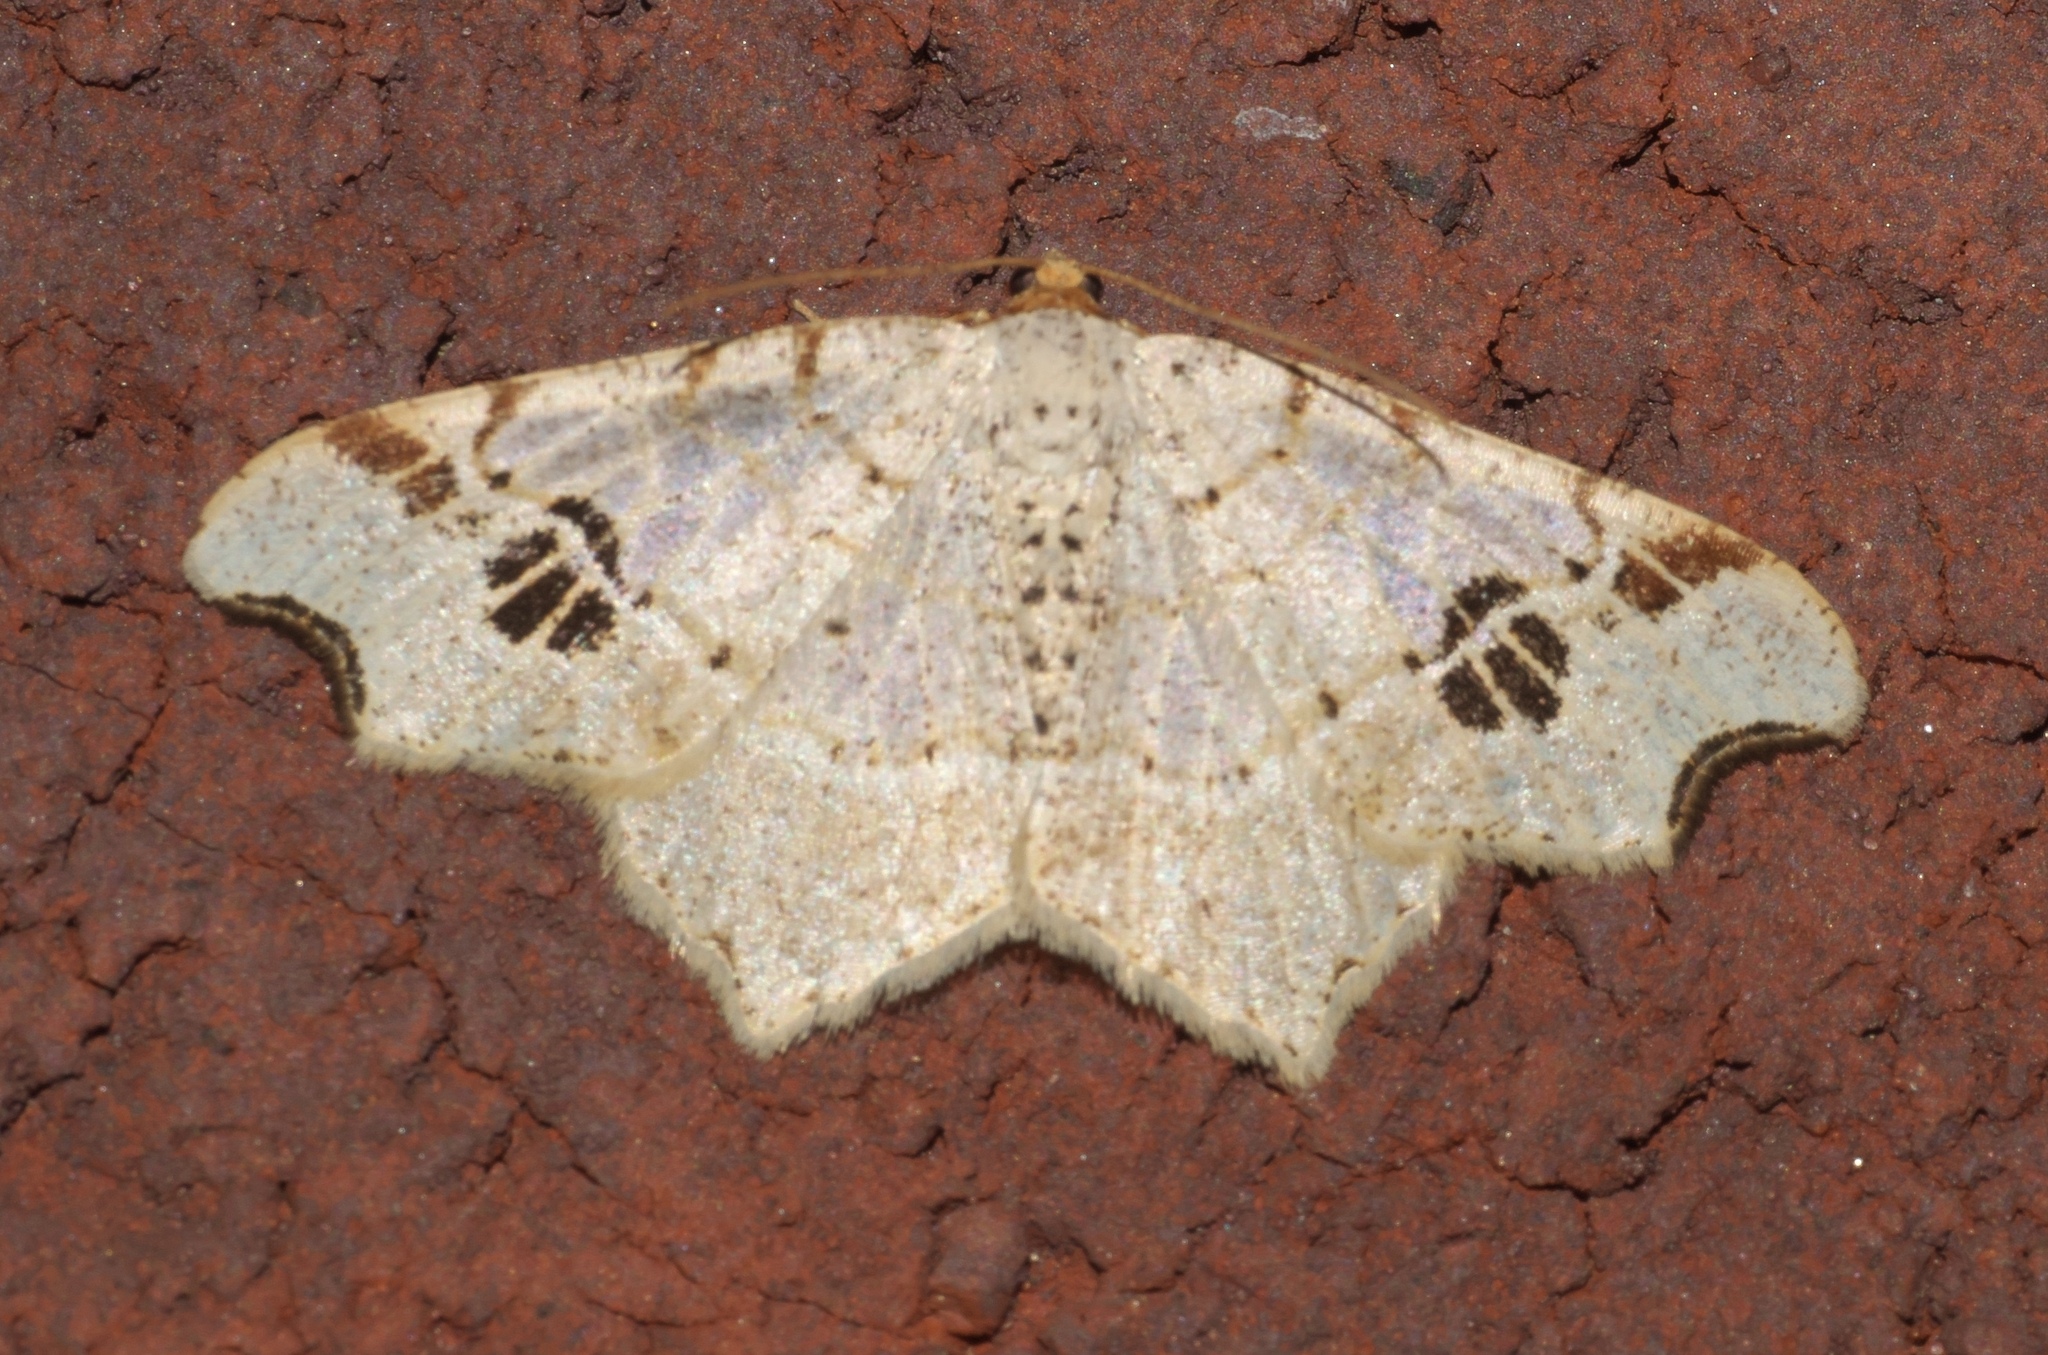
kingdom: Animalia
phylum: Arthropoda
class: Insecta
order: Lepidoptera
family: Geometridae
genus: Macaria
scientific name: Macaria aemulataria
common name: Common angle
